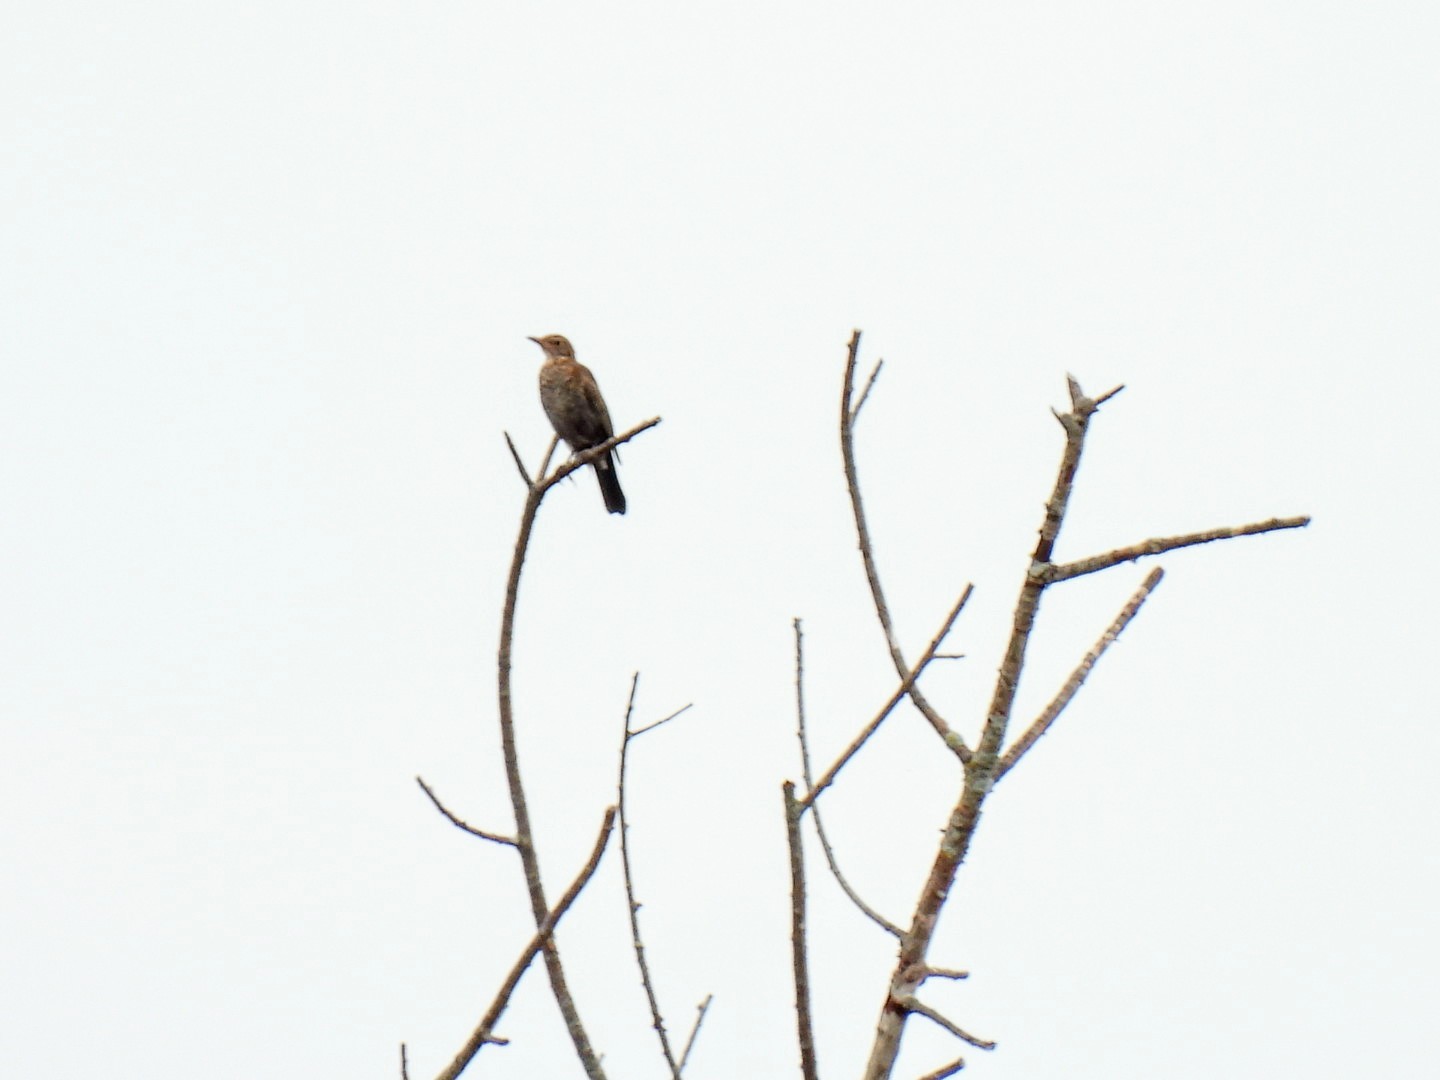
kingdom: Animalia
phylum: Chordata
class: Aves
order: Passeriformes
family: Turdidae
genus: Turdus
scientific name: Turdus merula
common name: Common blackbird
